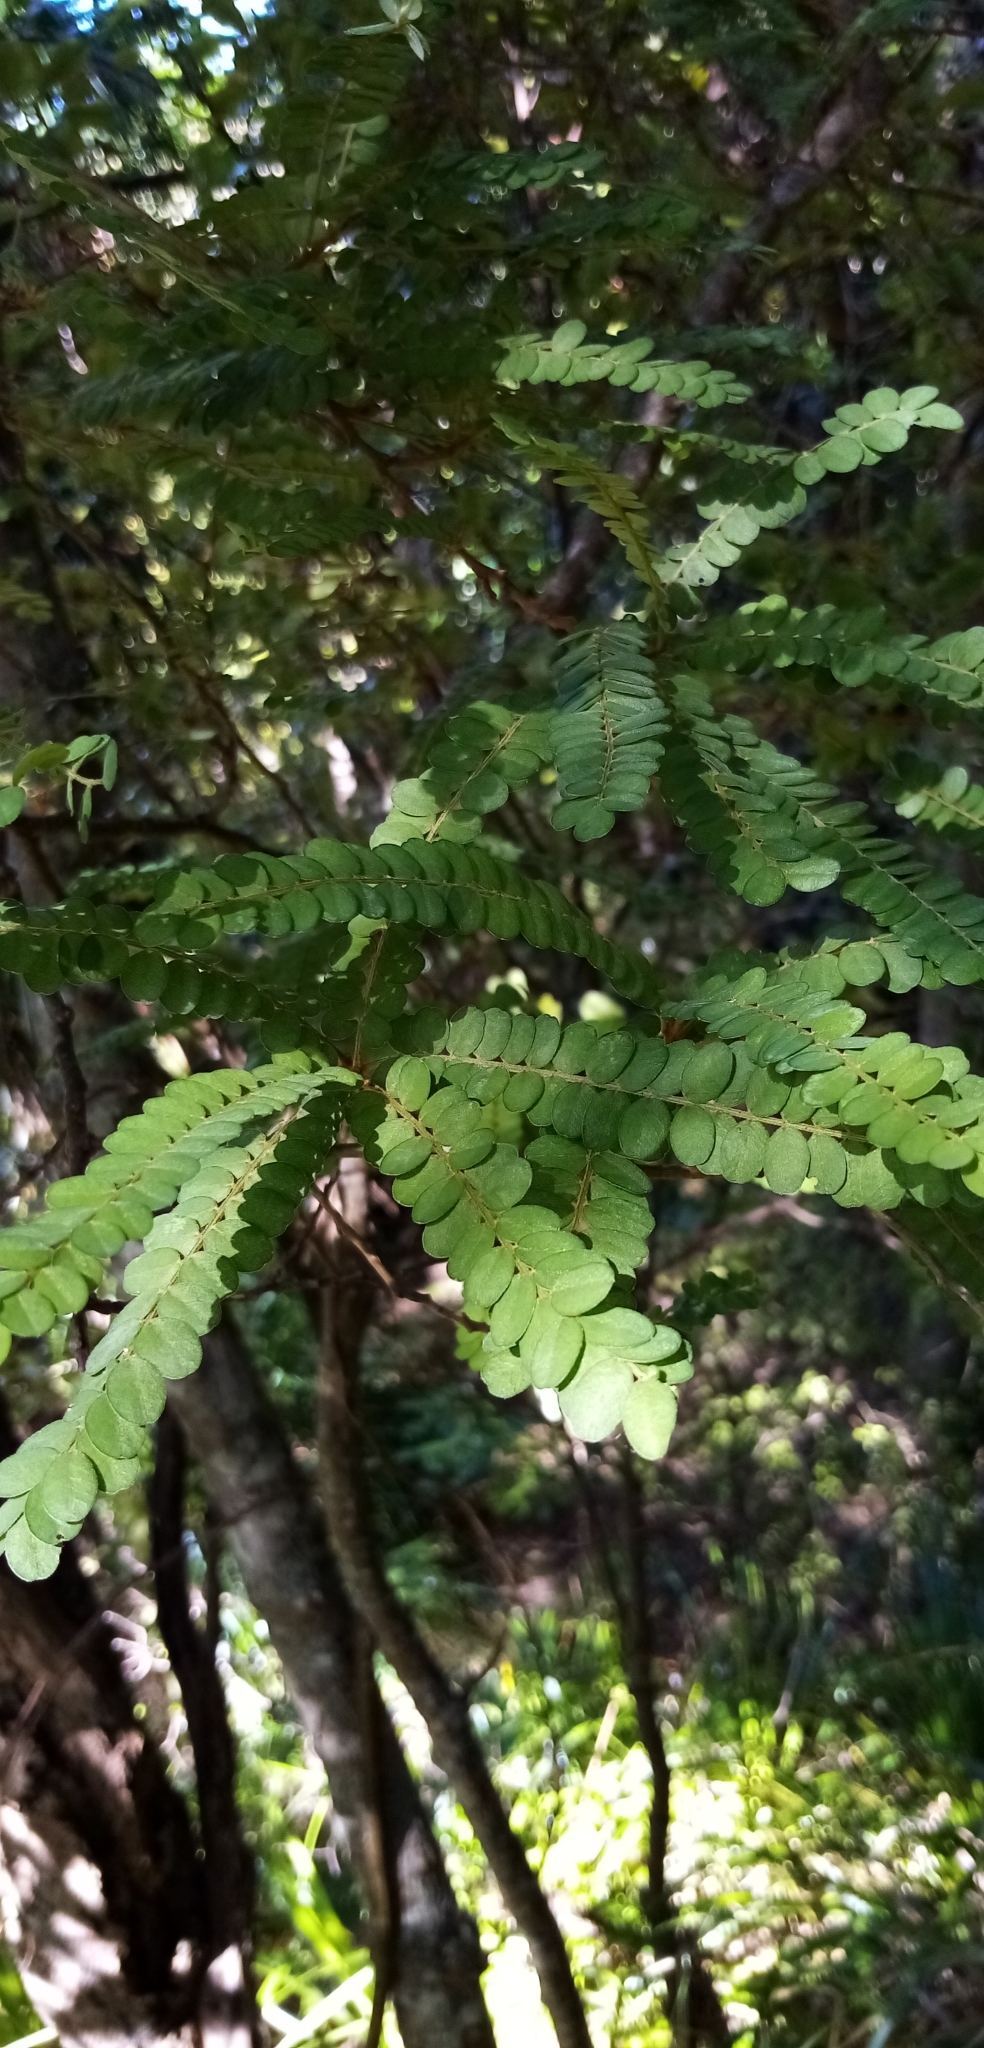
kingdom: Plantae
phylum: Tracheophyta
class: Magnoliopsida
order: Fabales
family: Fabaceae
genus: Sophora
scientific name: Sophora chathamica
